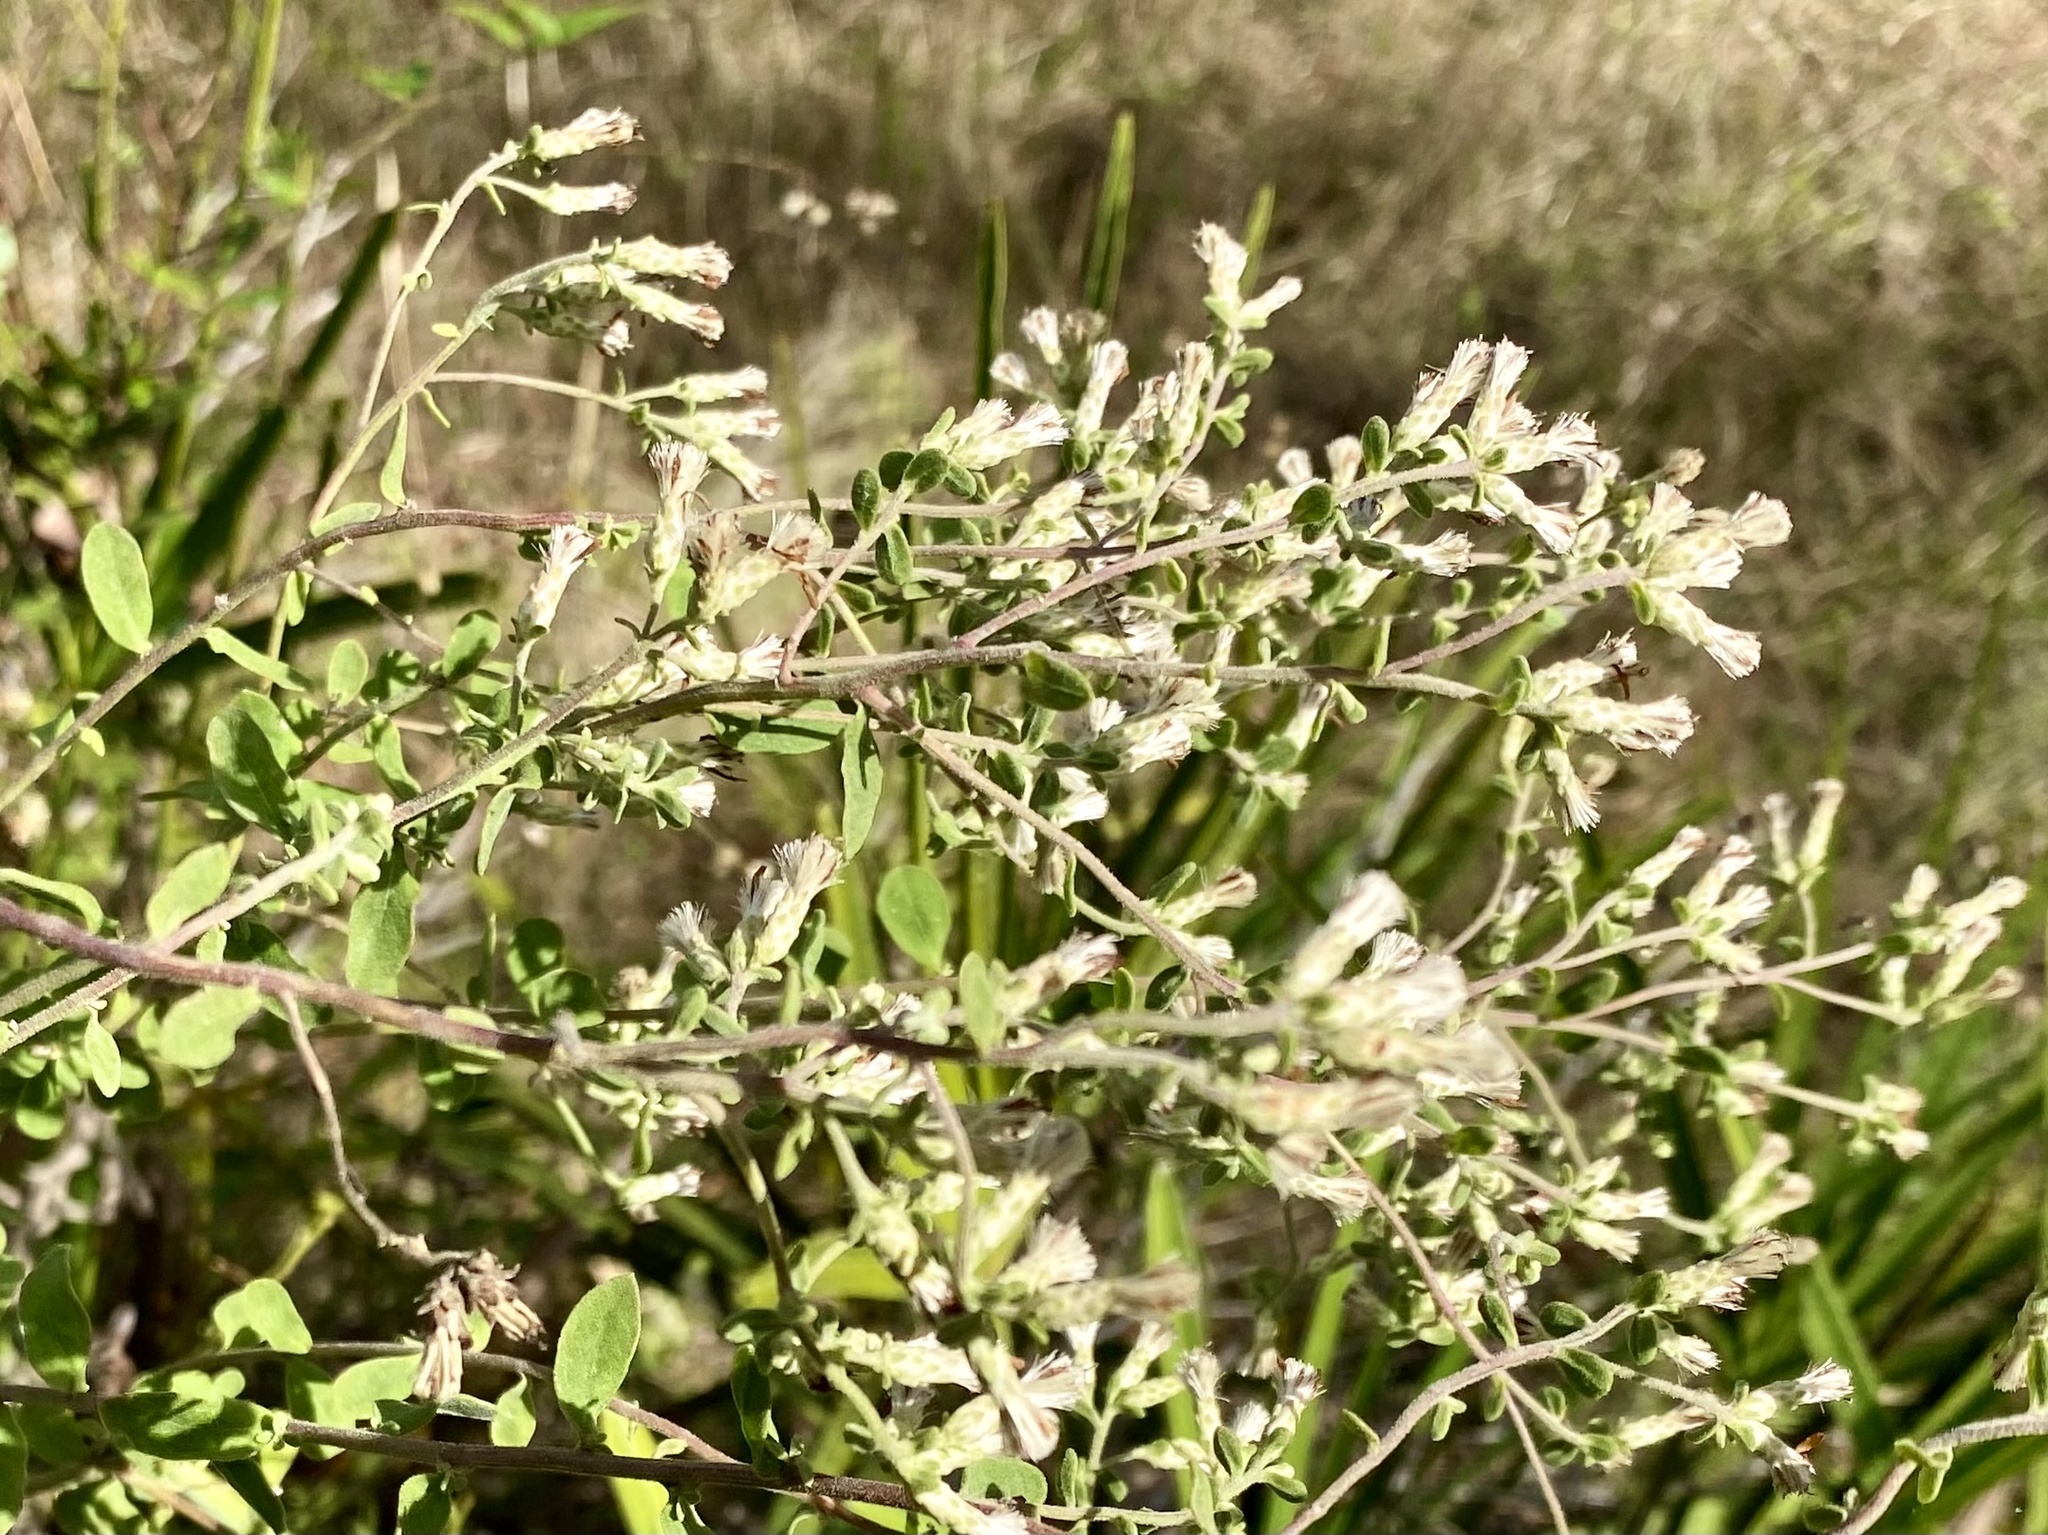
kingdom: Plantae
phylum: Tracheophyta
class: Magnoliopsida
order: Asterales
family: Asteraceae
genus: Sericocarpus
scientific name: Sericocarpus tortifolius
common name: Dixie aster
